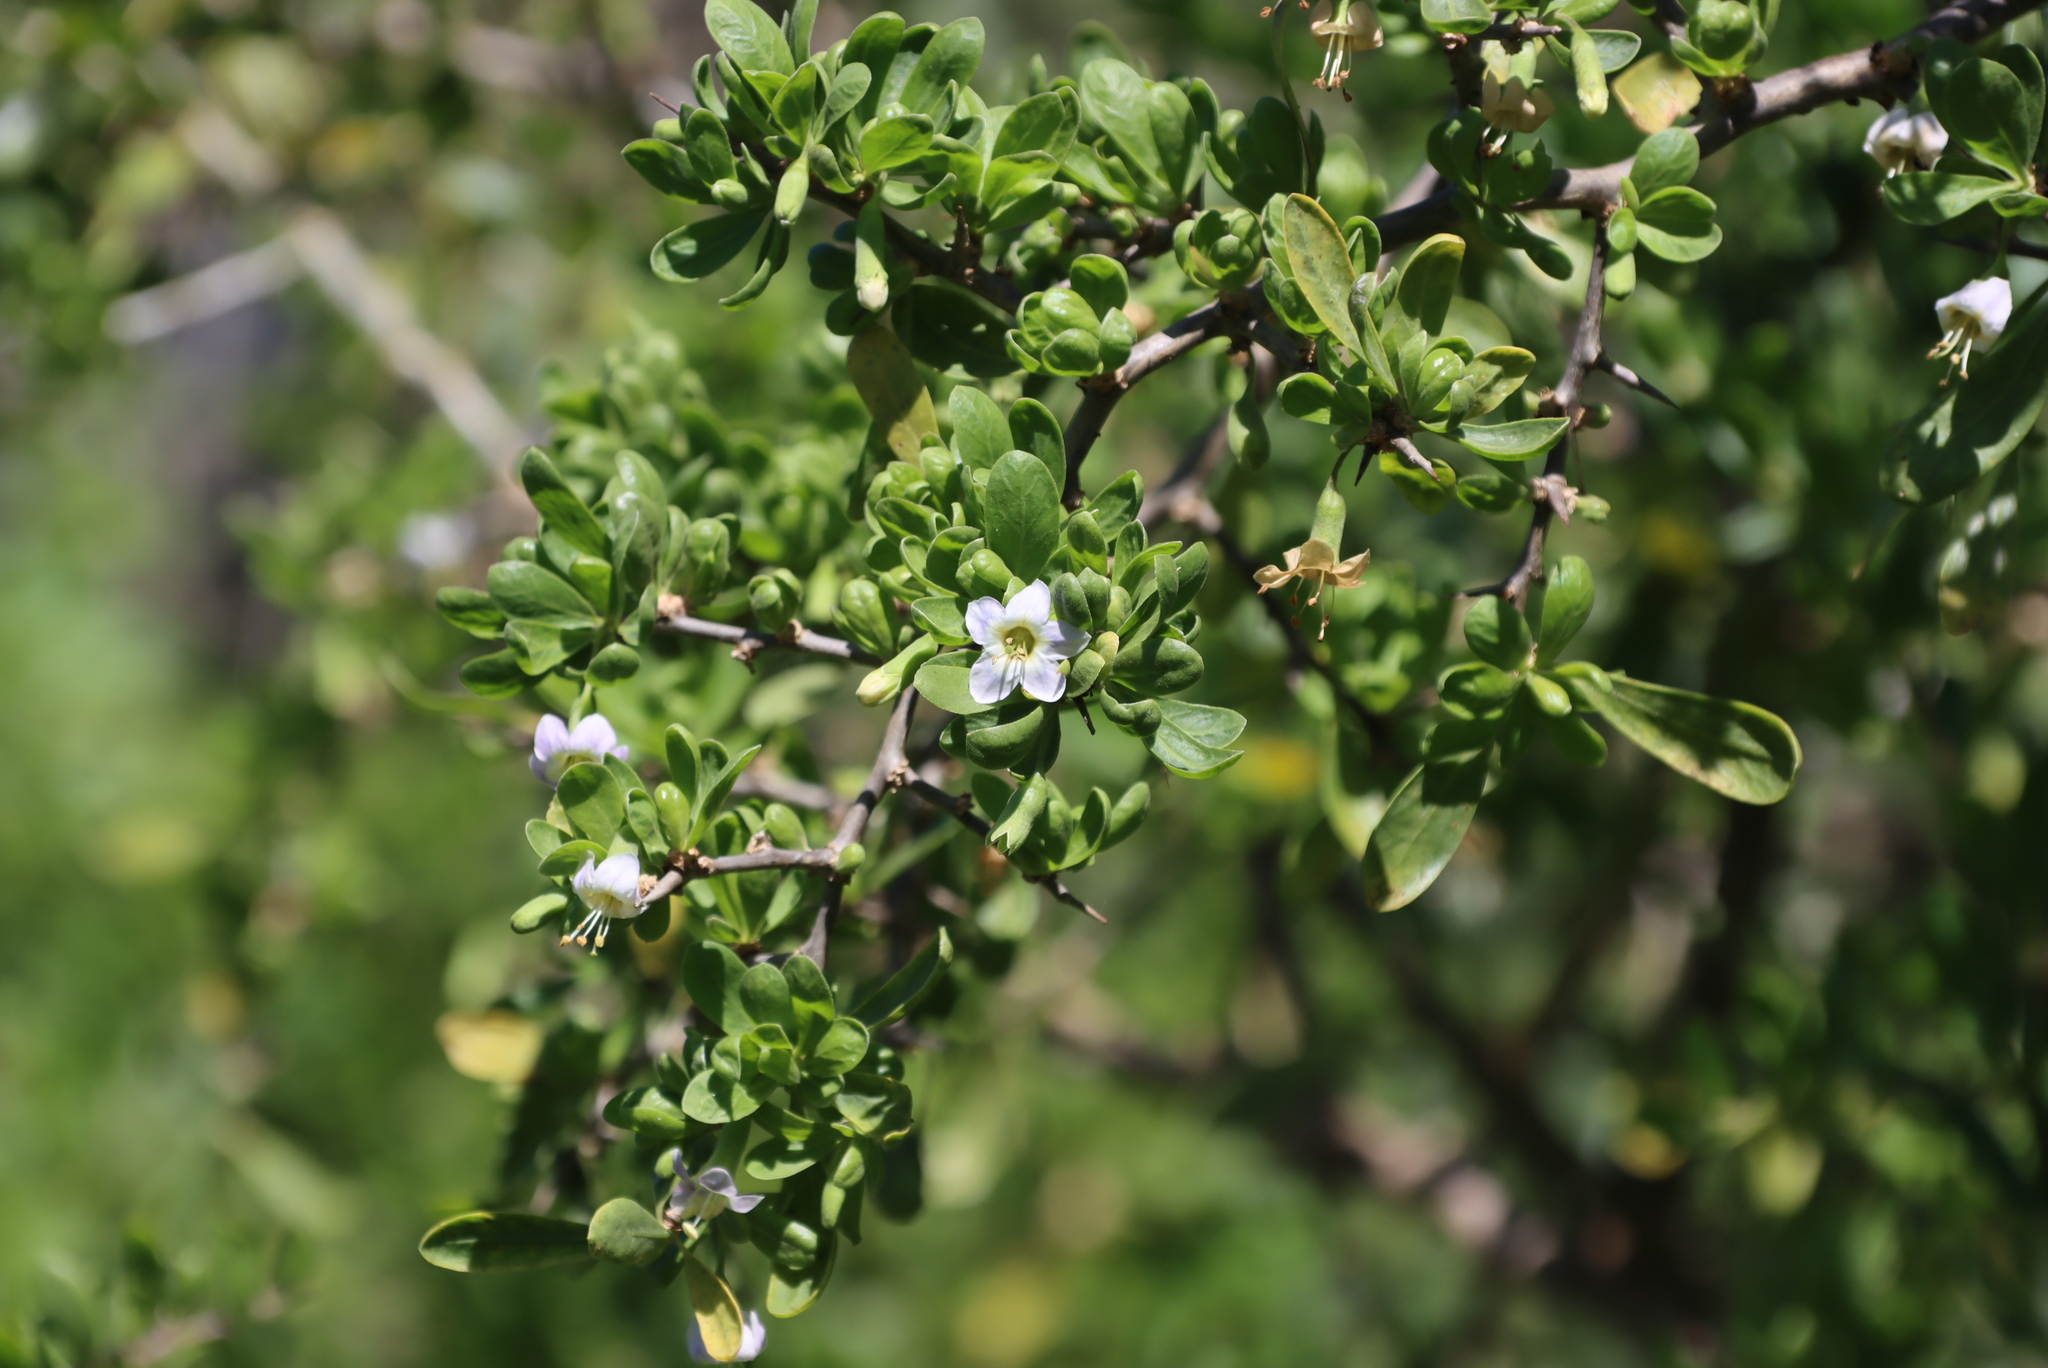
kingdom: Plantae
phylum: Tracheophyta
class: Magnoliopsida
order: Solanales
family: Solanaceae
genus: Lycium
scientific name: Lycium ferocissimum
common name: African boxthorn
